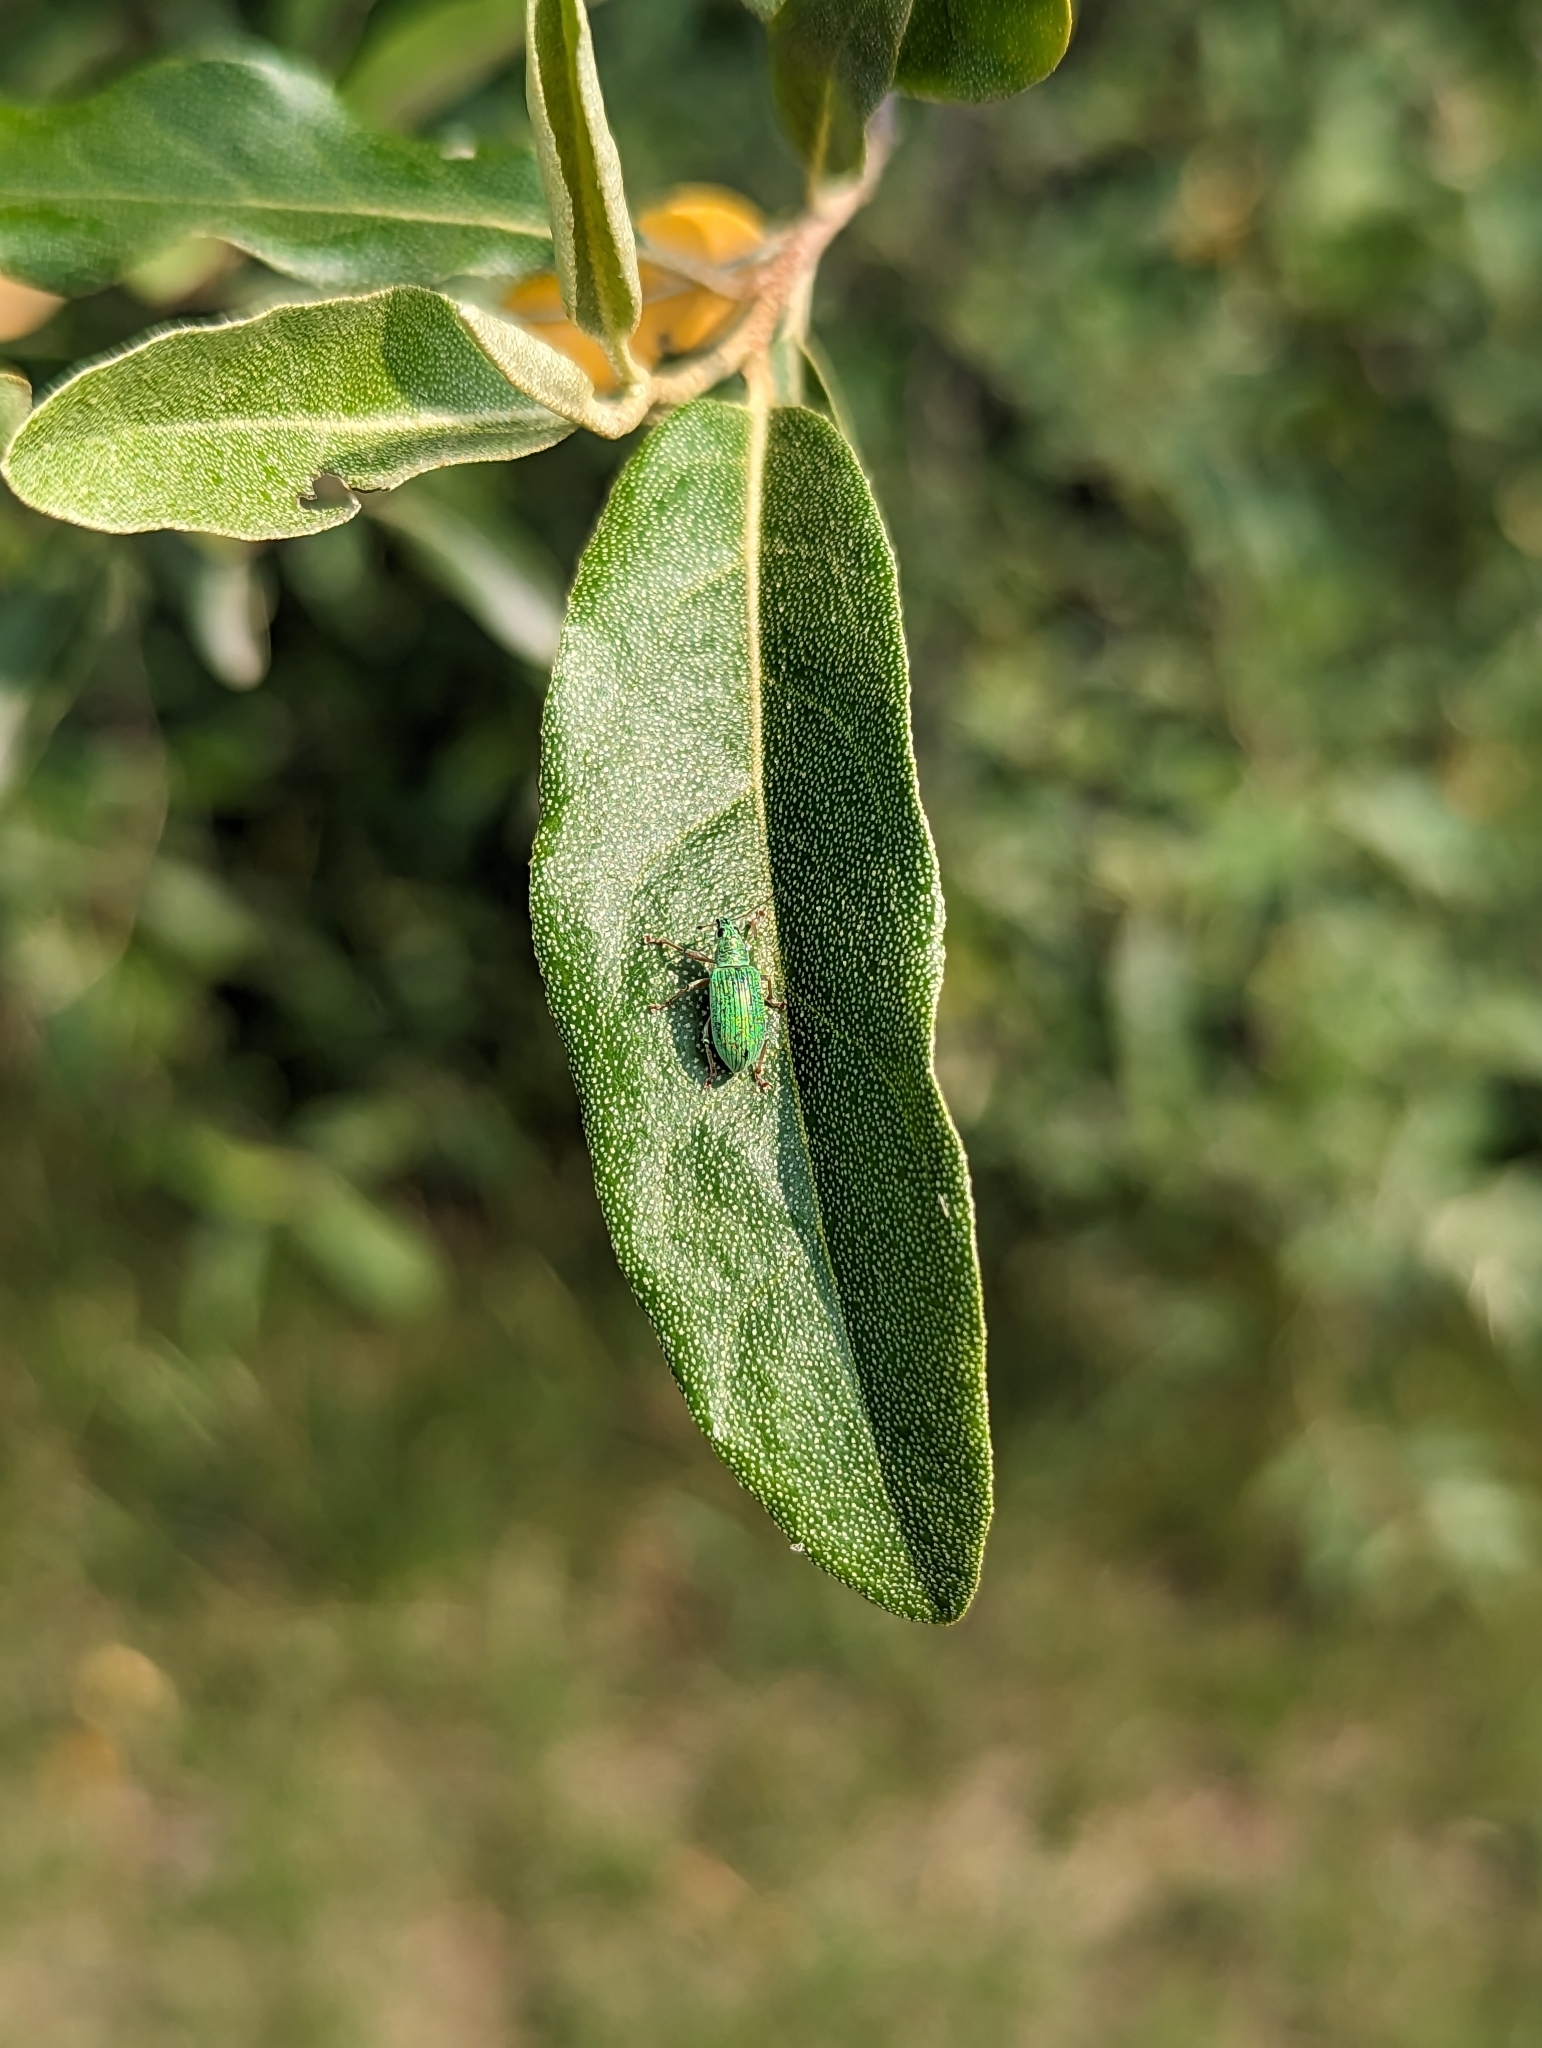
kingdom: Plantae
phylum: Tracheophyta
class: Magnoliopsida
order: Rosales
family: Elaeagnaceae
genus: Elaeagnus
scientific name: Elaeagnus umbellata
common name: Autumn olive
